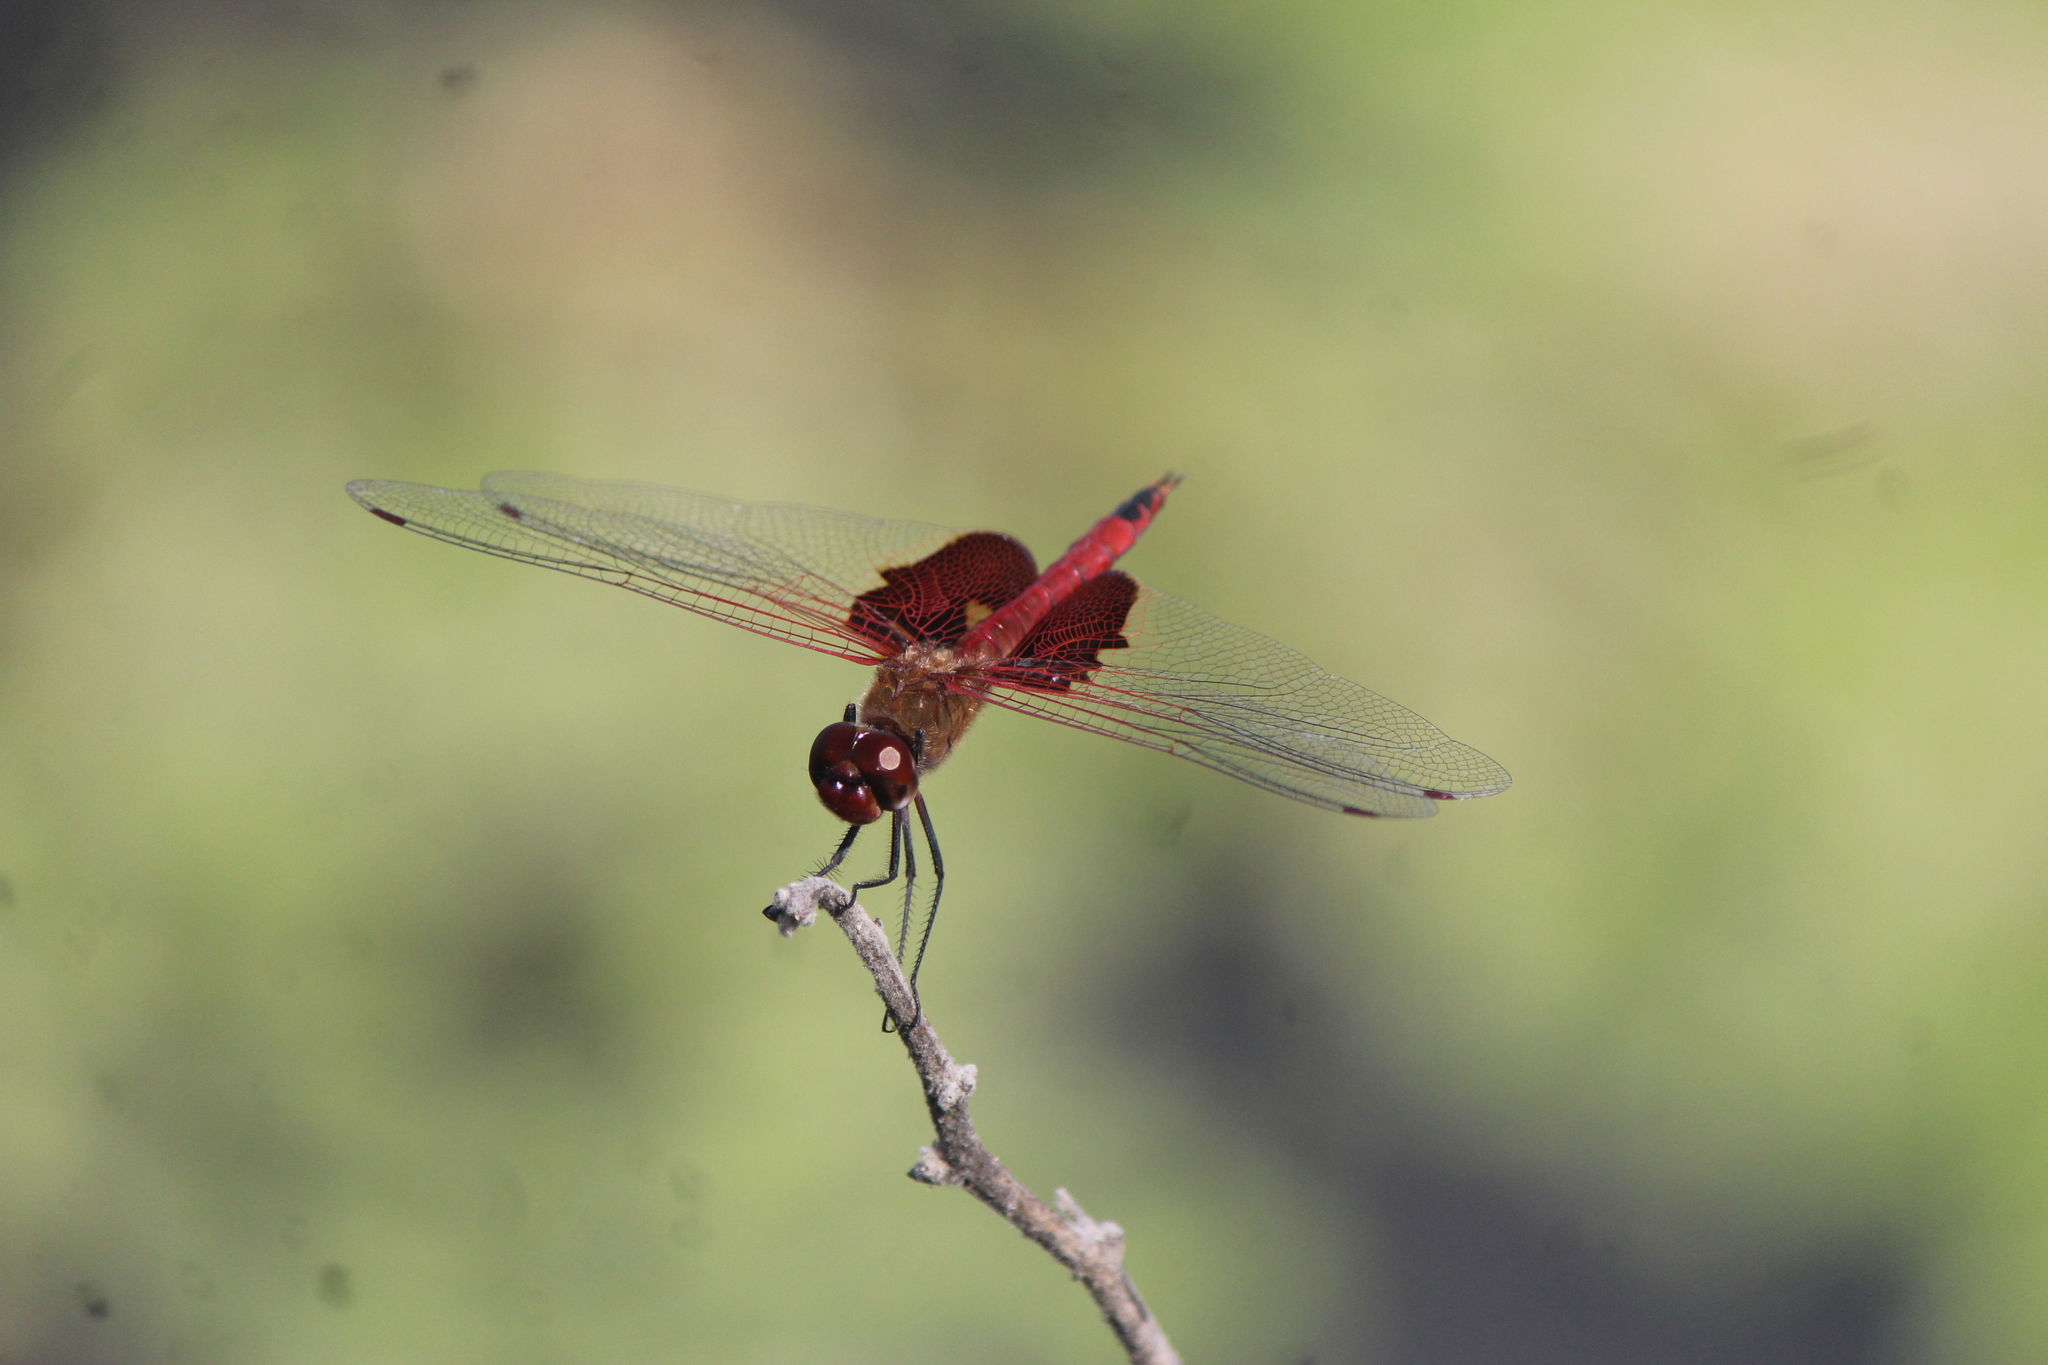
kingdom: Animalia
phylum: Arthropoda
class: Insecta
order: Odonata
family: Libellulidae
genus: Tramea
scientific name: Tramea onusta
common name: Red saddlebags
